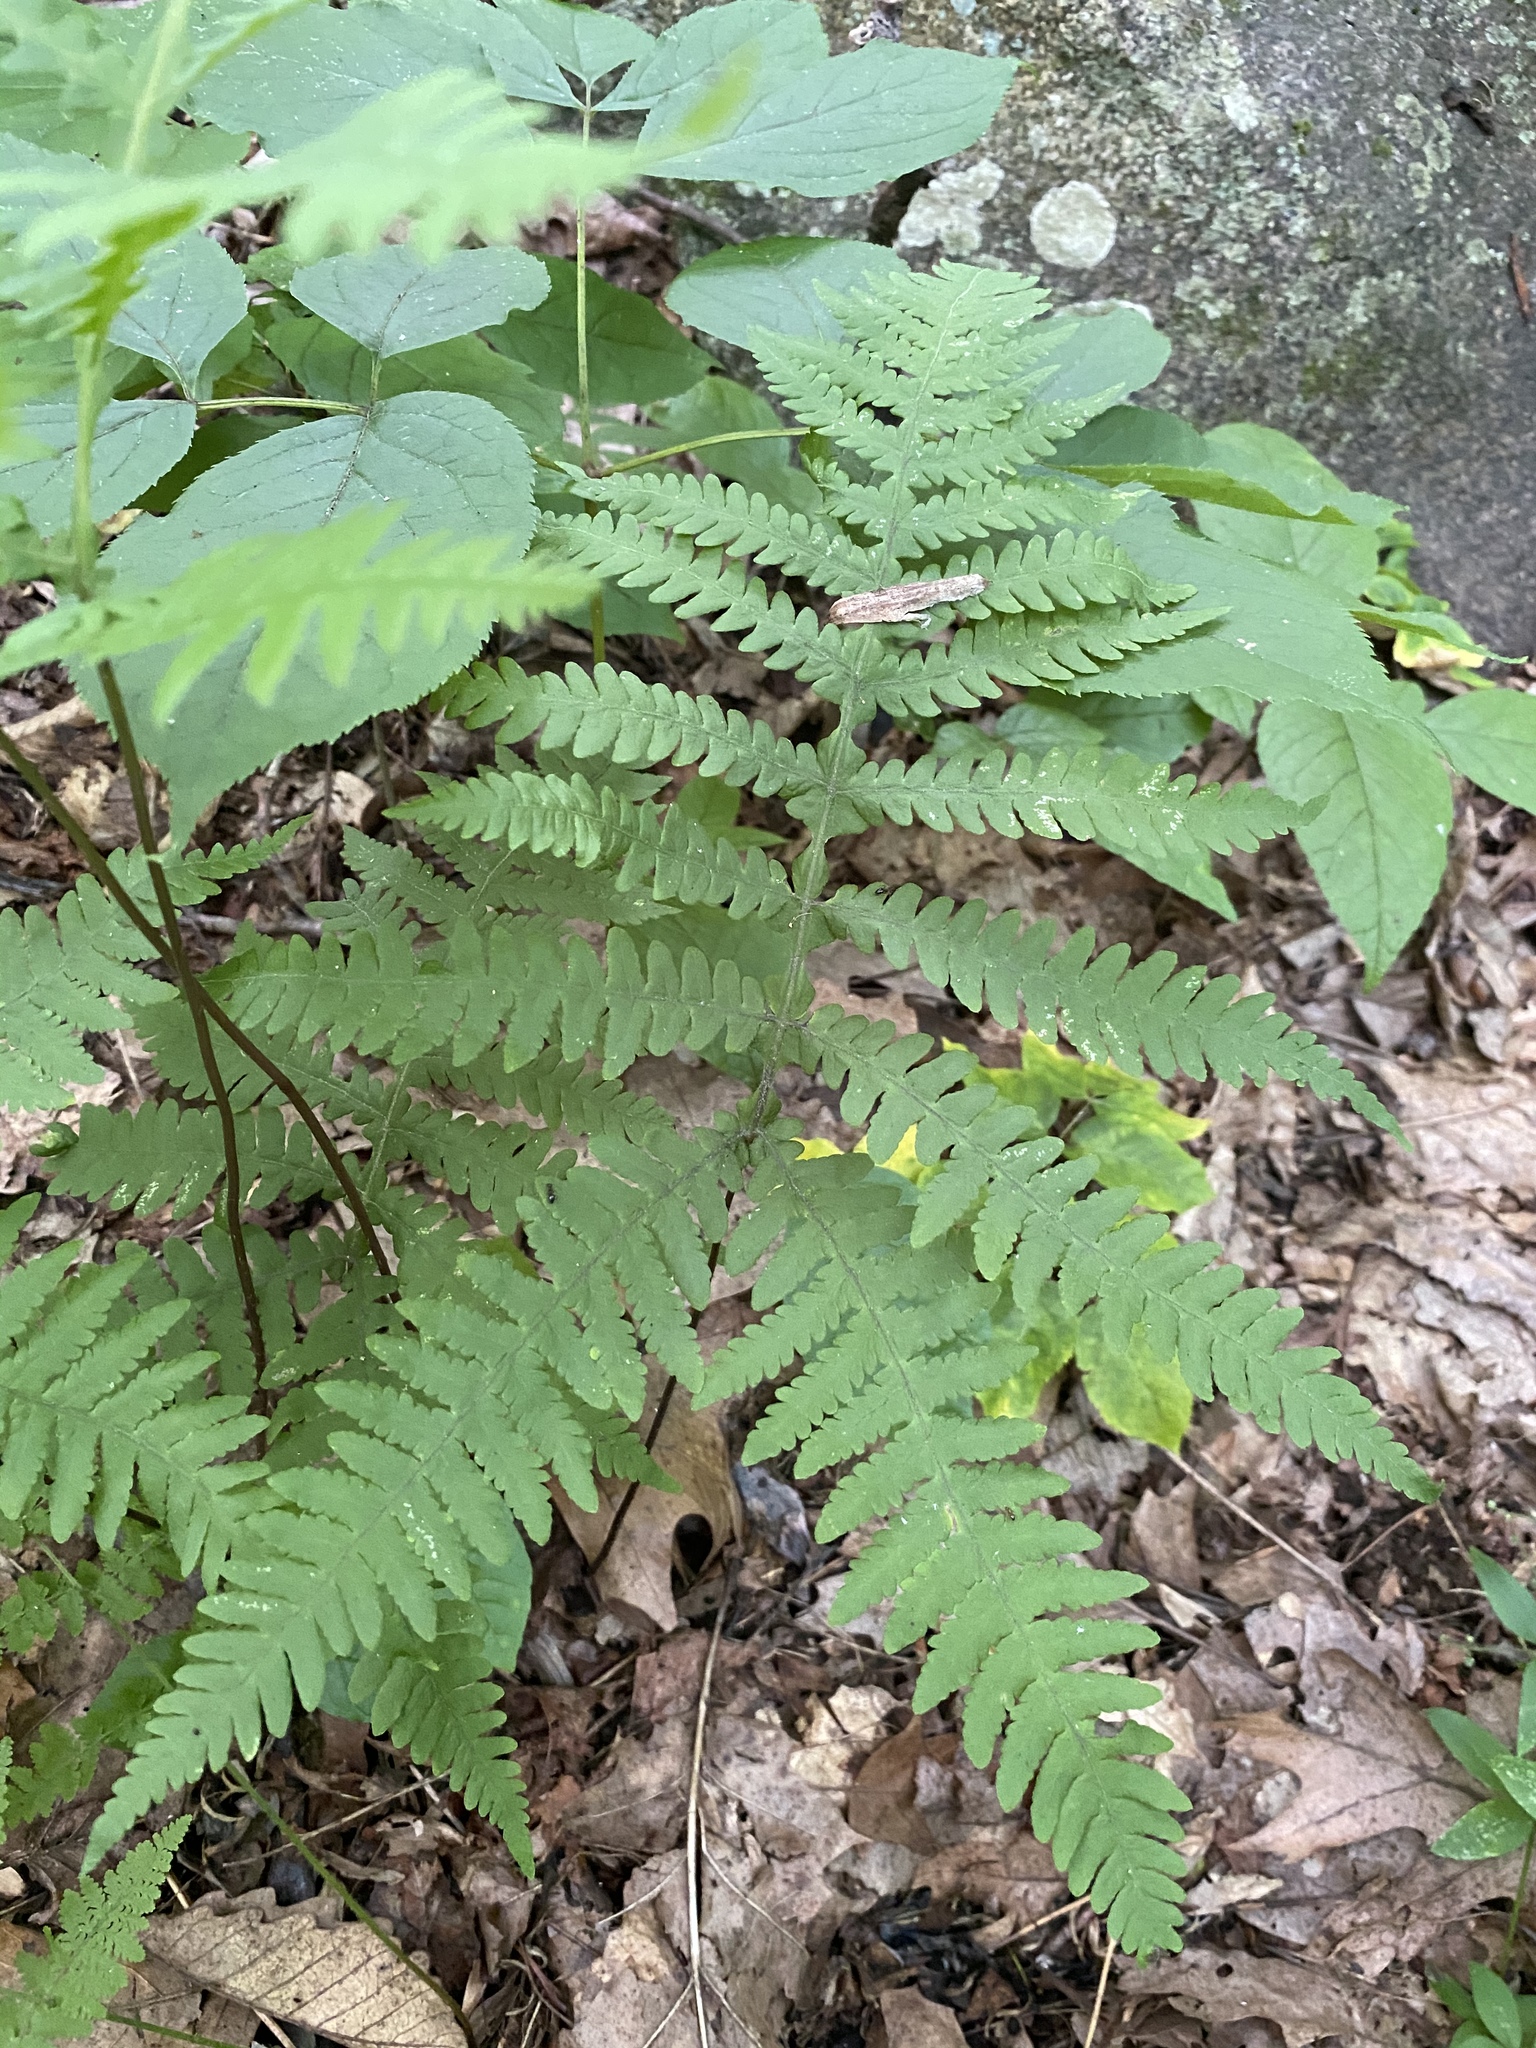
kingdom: Plantae
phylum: Tracheophyta
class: Polypodiopsida
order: Polypodiales
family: Thelypteridaceae
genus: Phegopteris
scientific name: Phegopteris hexagonoptera
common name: Broad beech fern
